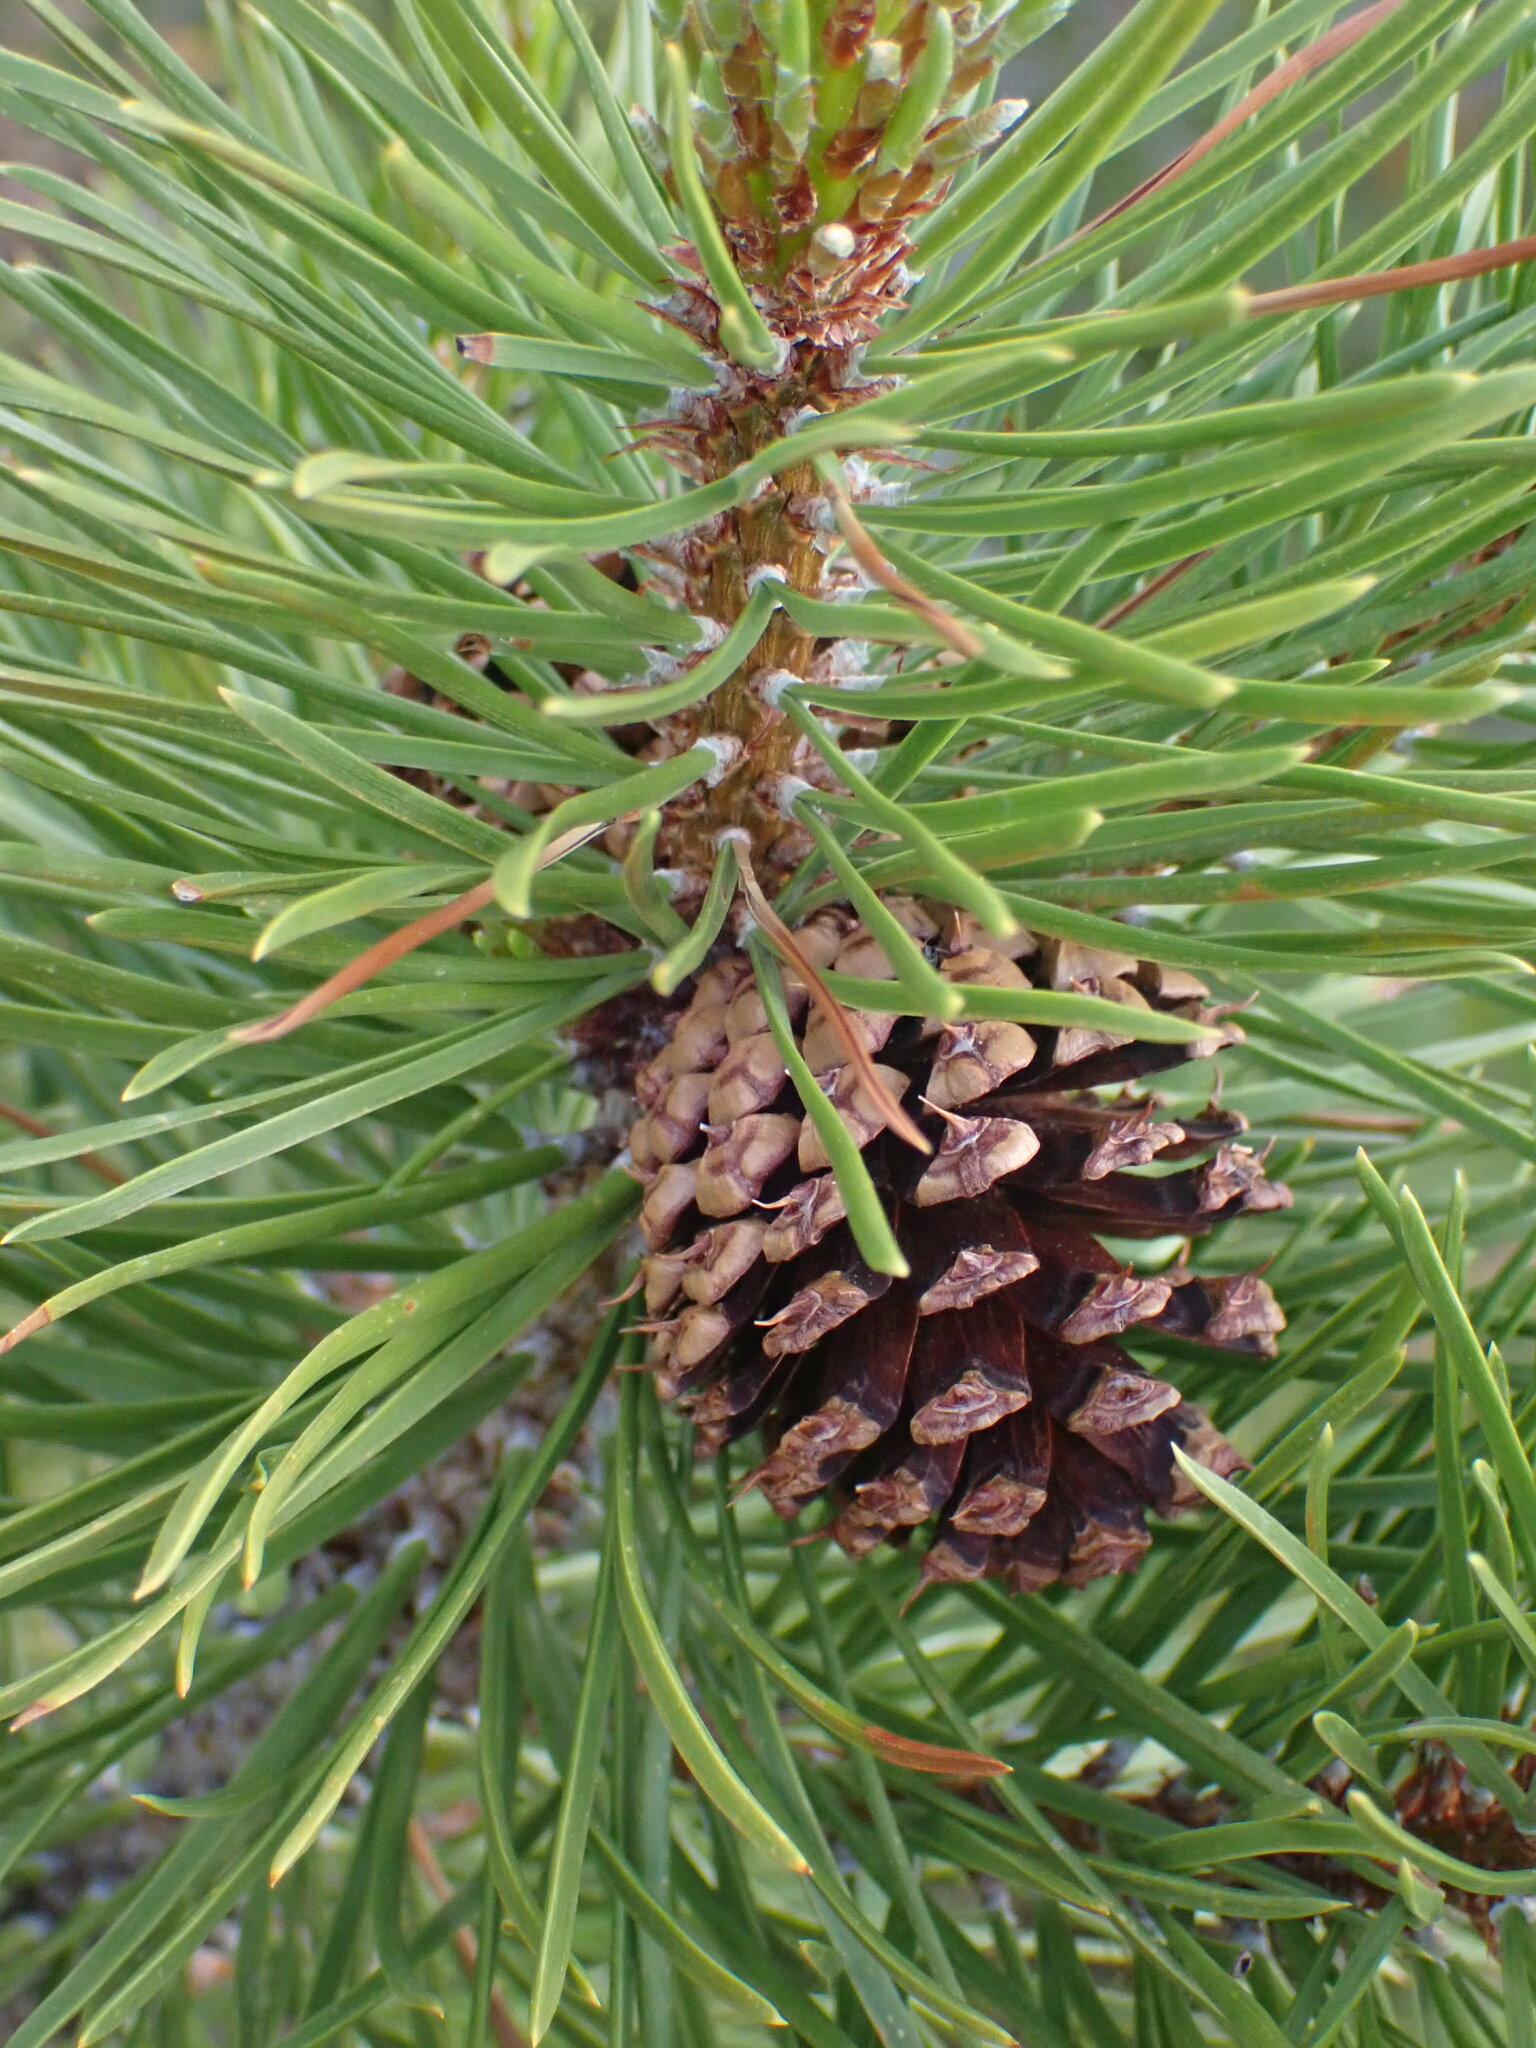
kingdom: Plantae
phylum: Tracheophyta
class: Pinopsida
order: Pinales
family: Pinaceae
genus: Pinus
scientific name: Pinus contorta
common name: Lodgepole pine
